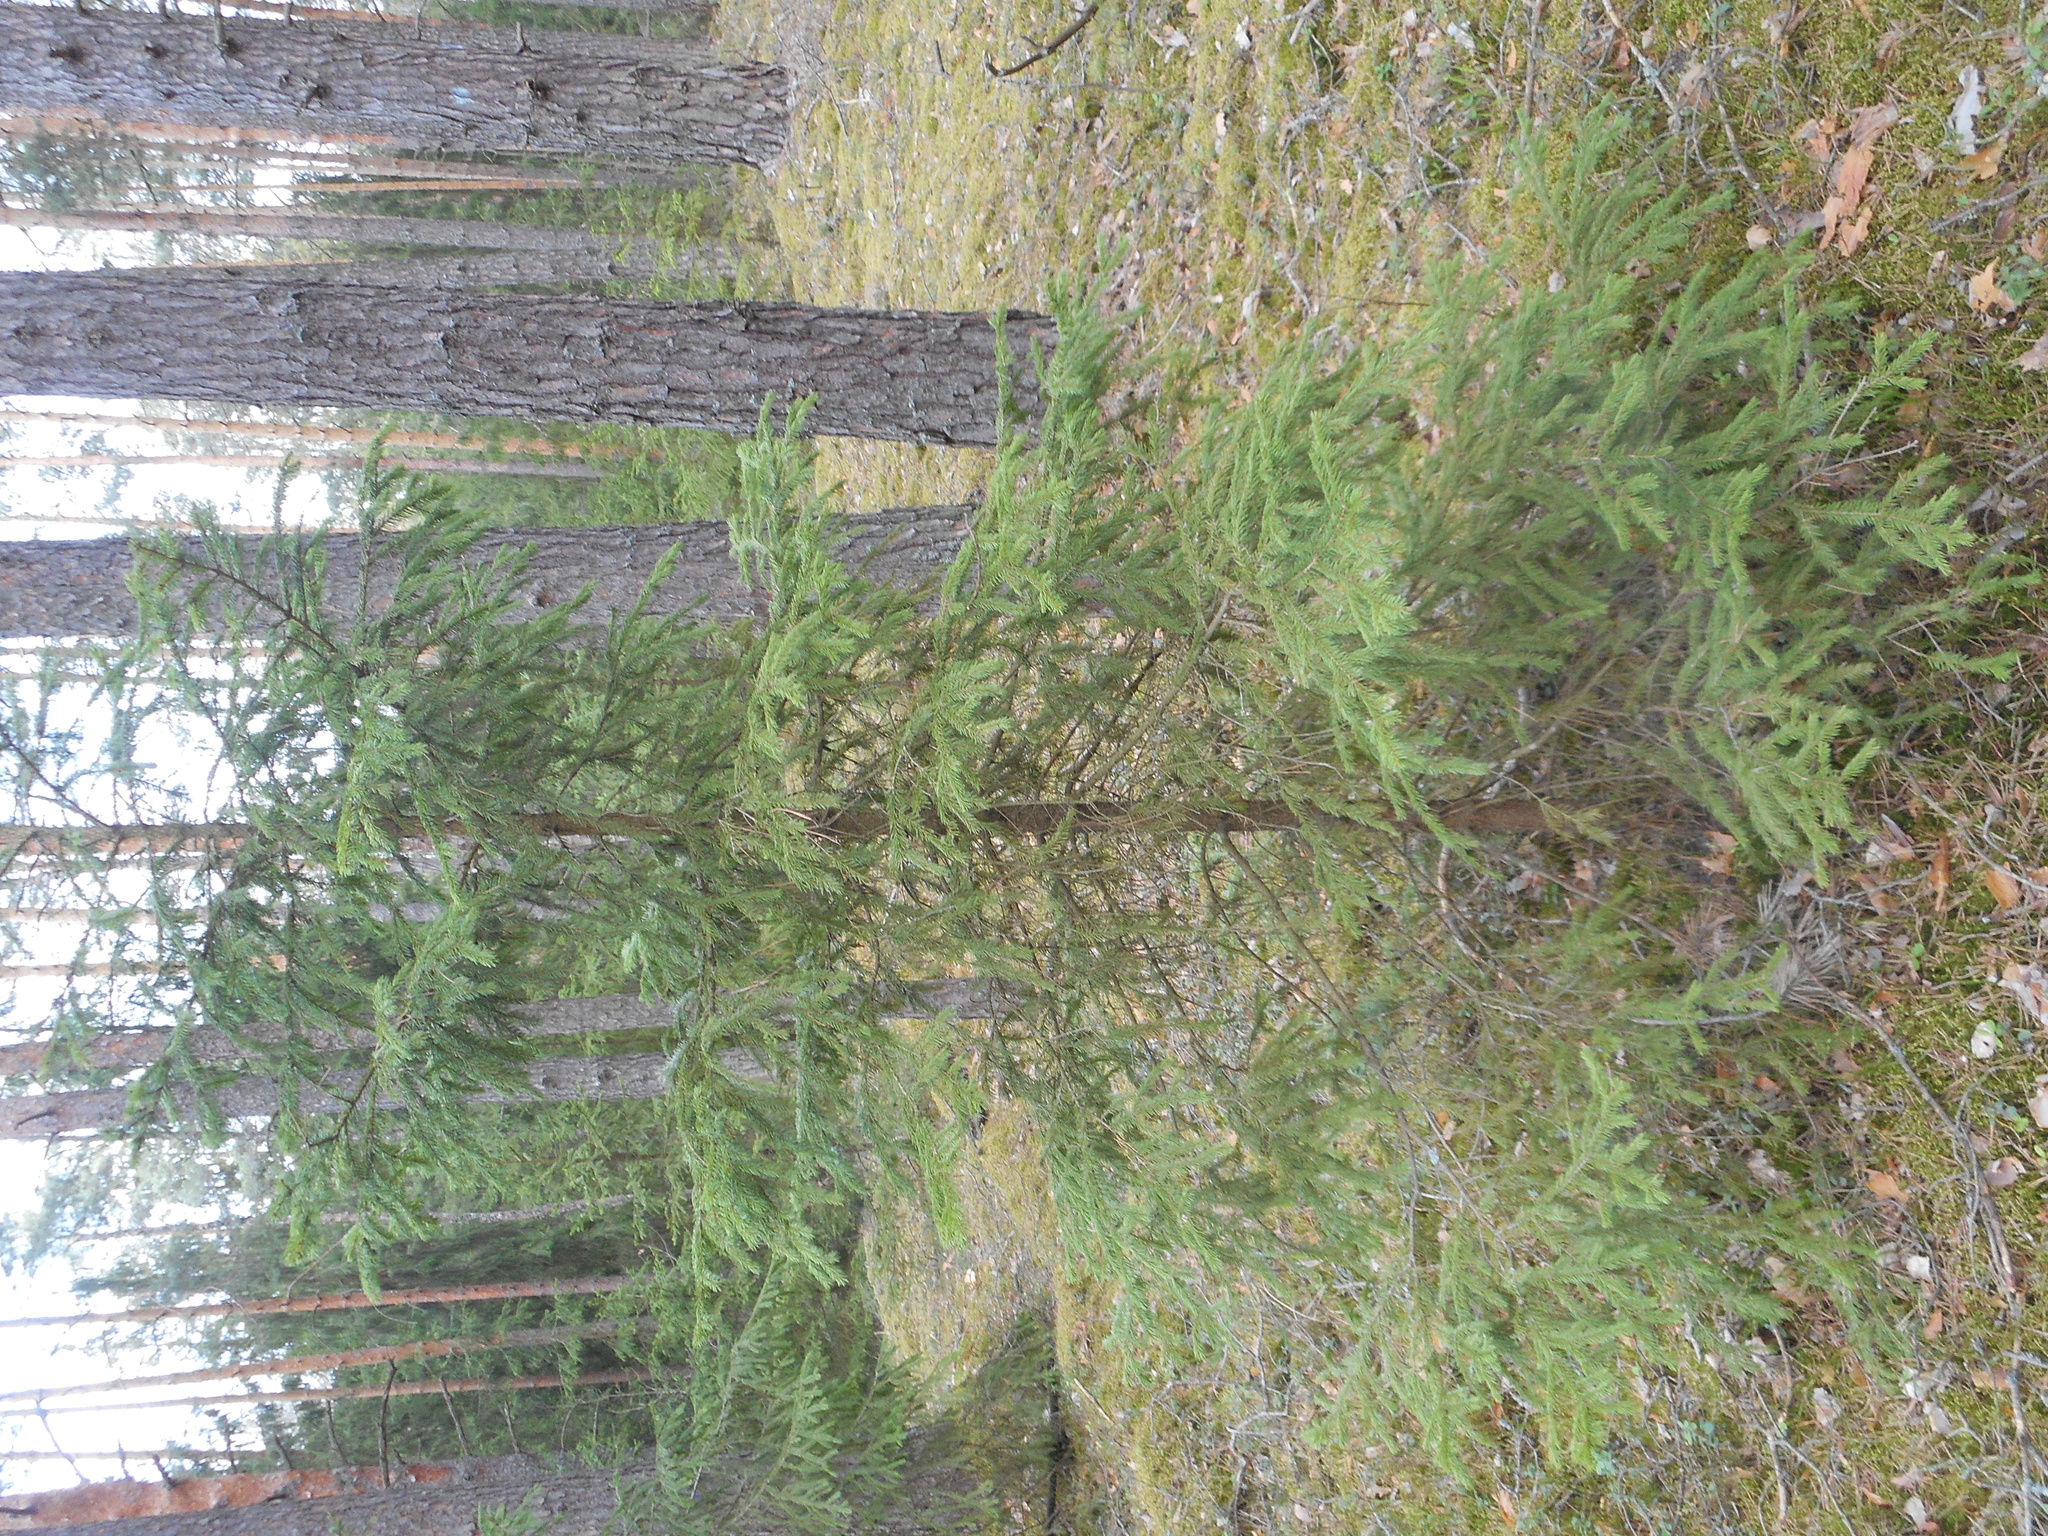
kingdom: Plantae
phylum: Tracheophyta
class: Pinopsida
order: Pinales
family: Pinaceae
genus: Picea
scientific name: Picea abies
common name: Norway spruce
